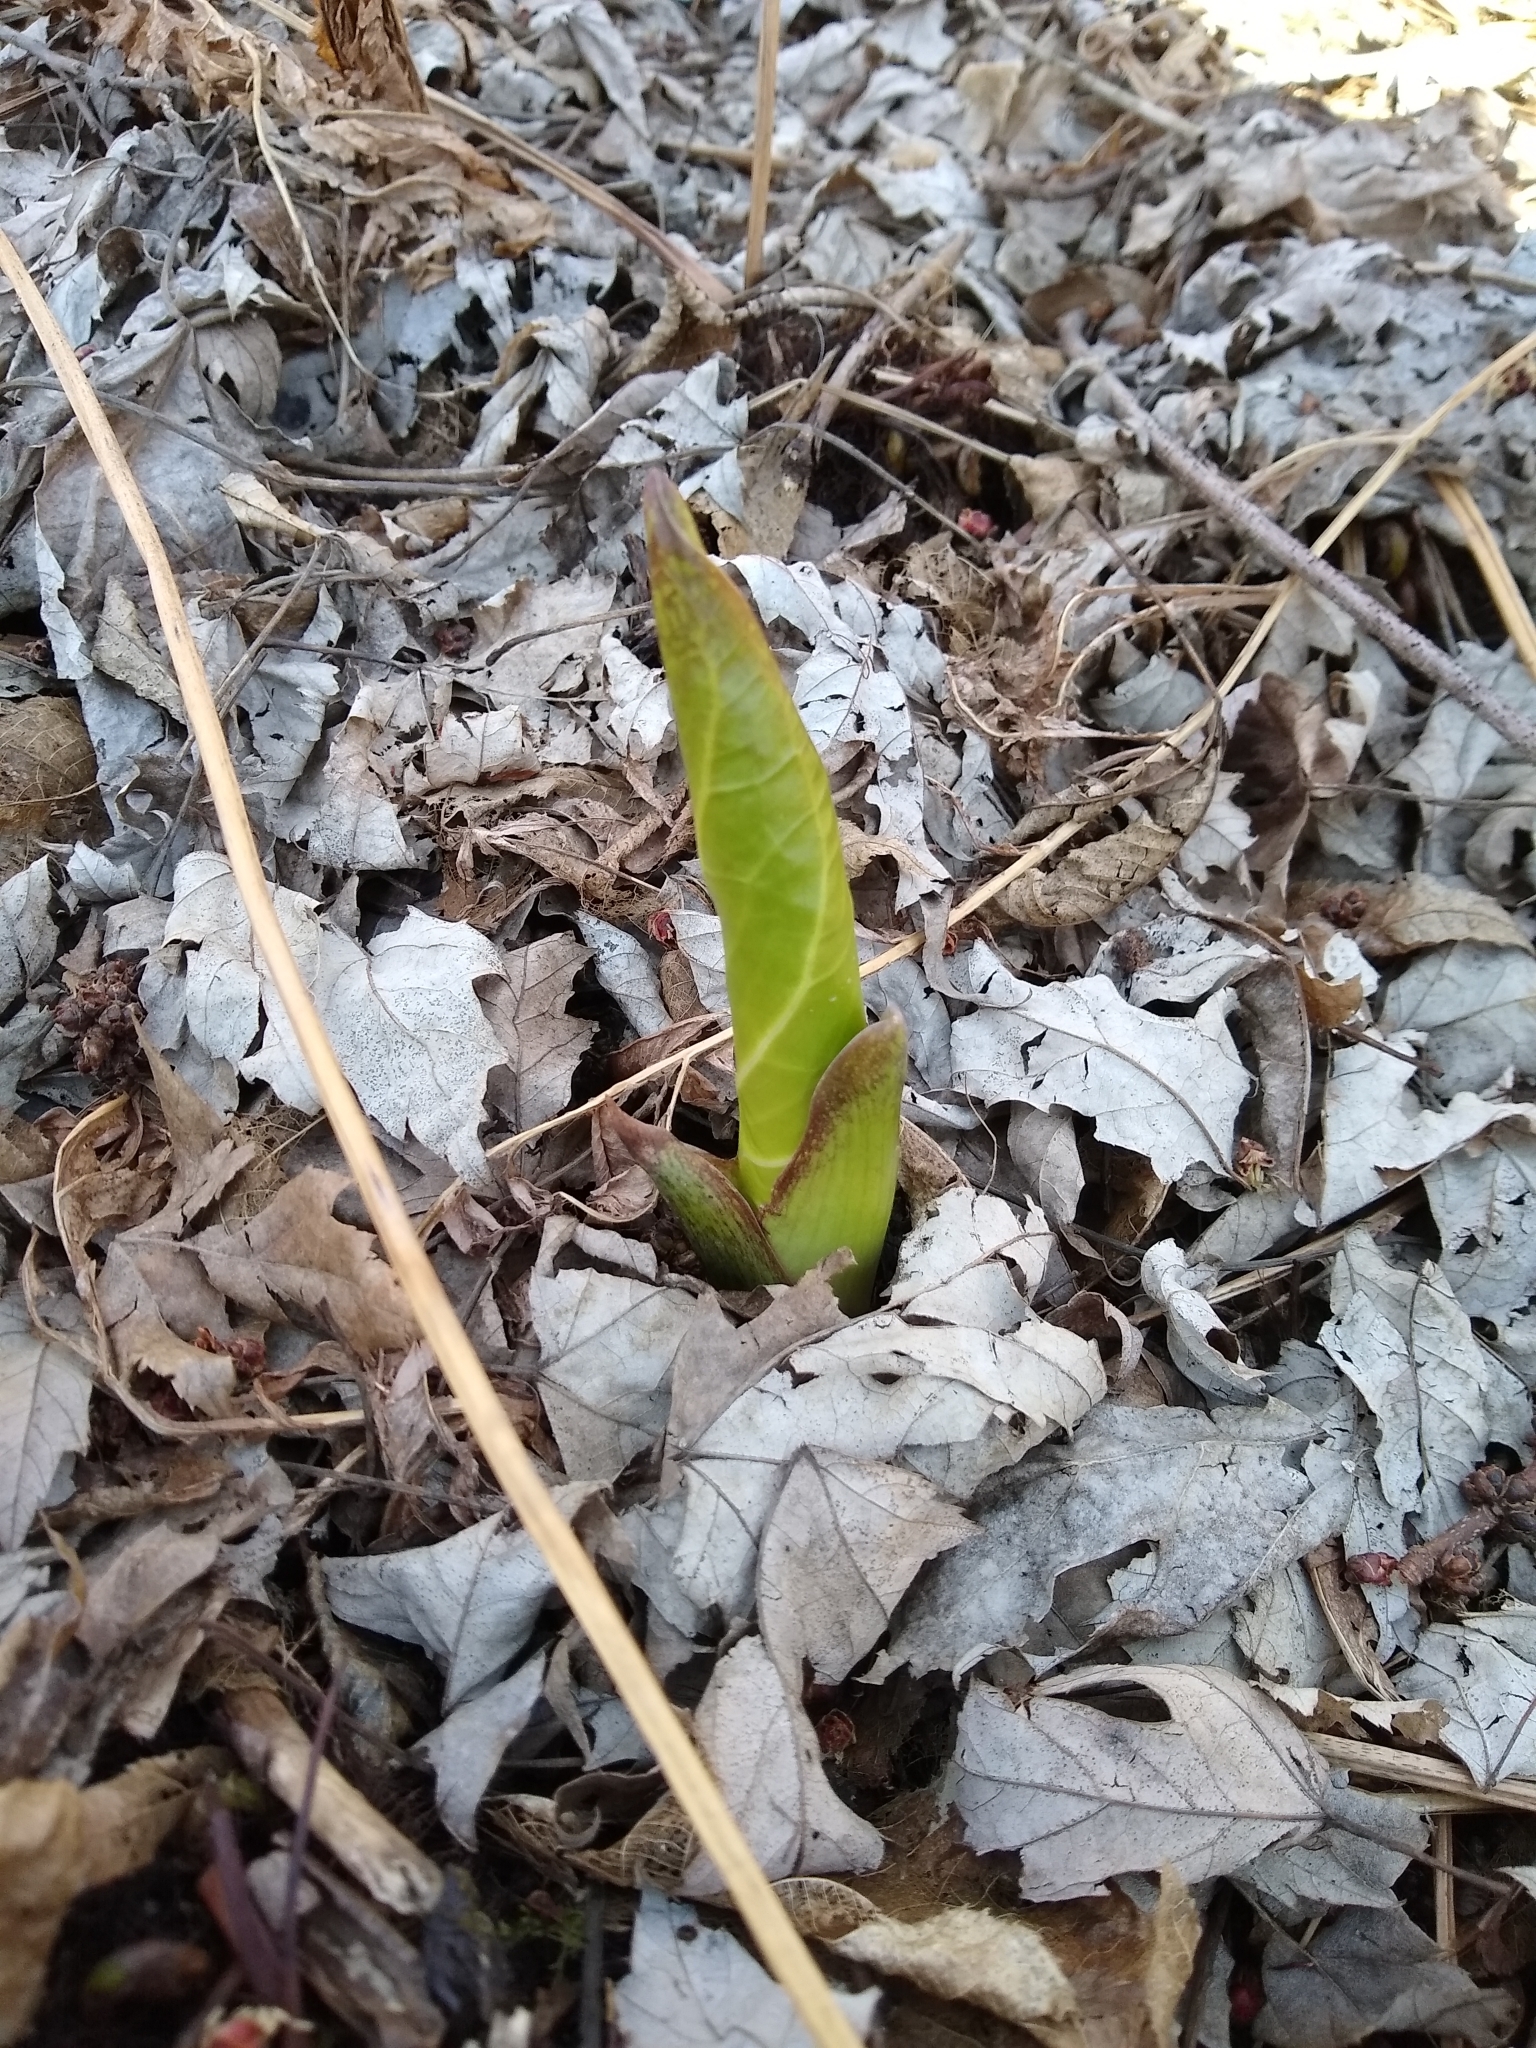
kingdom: Plantae
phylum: Tracheophyta
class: Liliopsida
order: Alismatales
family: Araceae
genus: Symplocarpus
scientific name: Symplocarpus foetidus
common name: Eastern skunk cabbage
